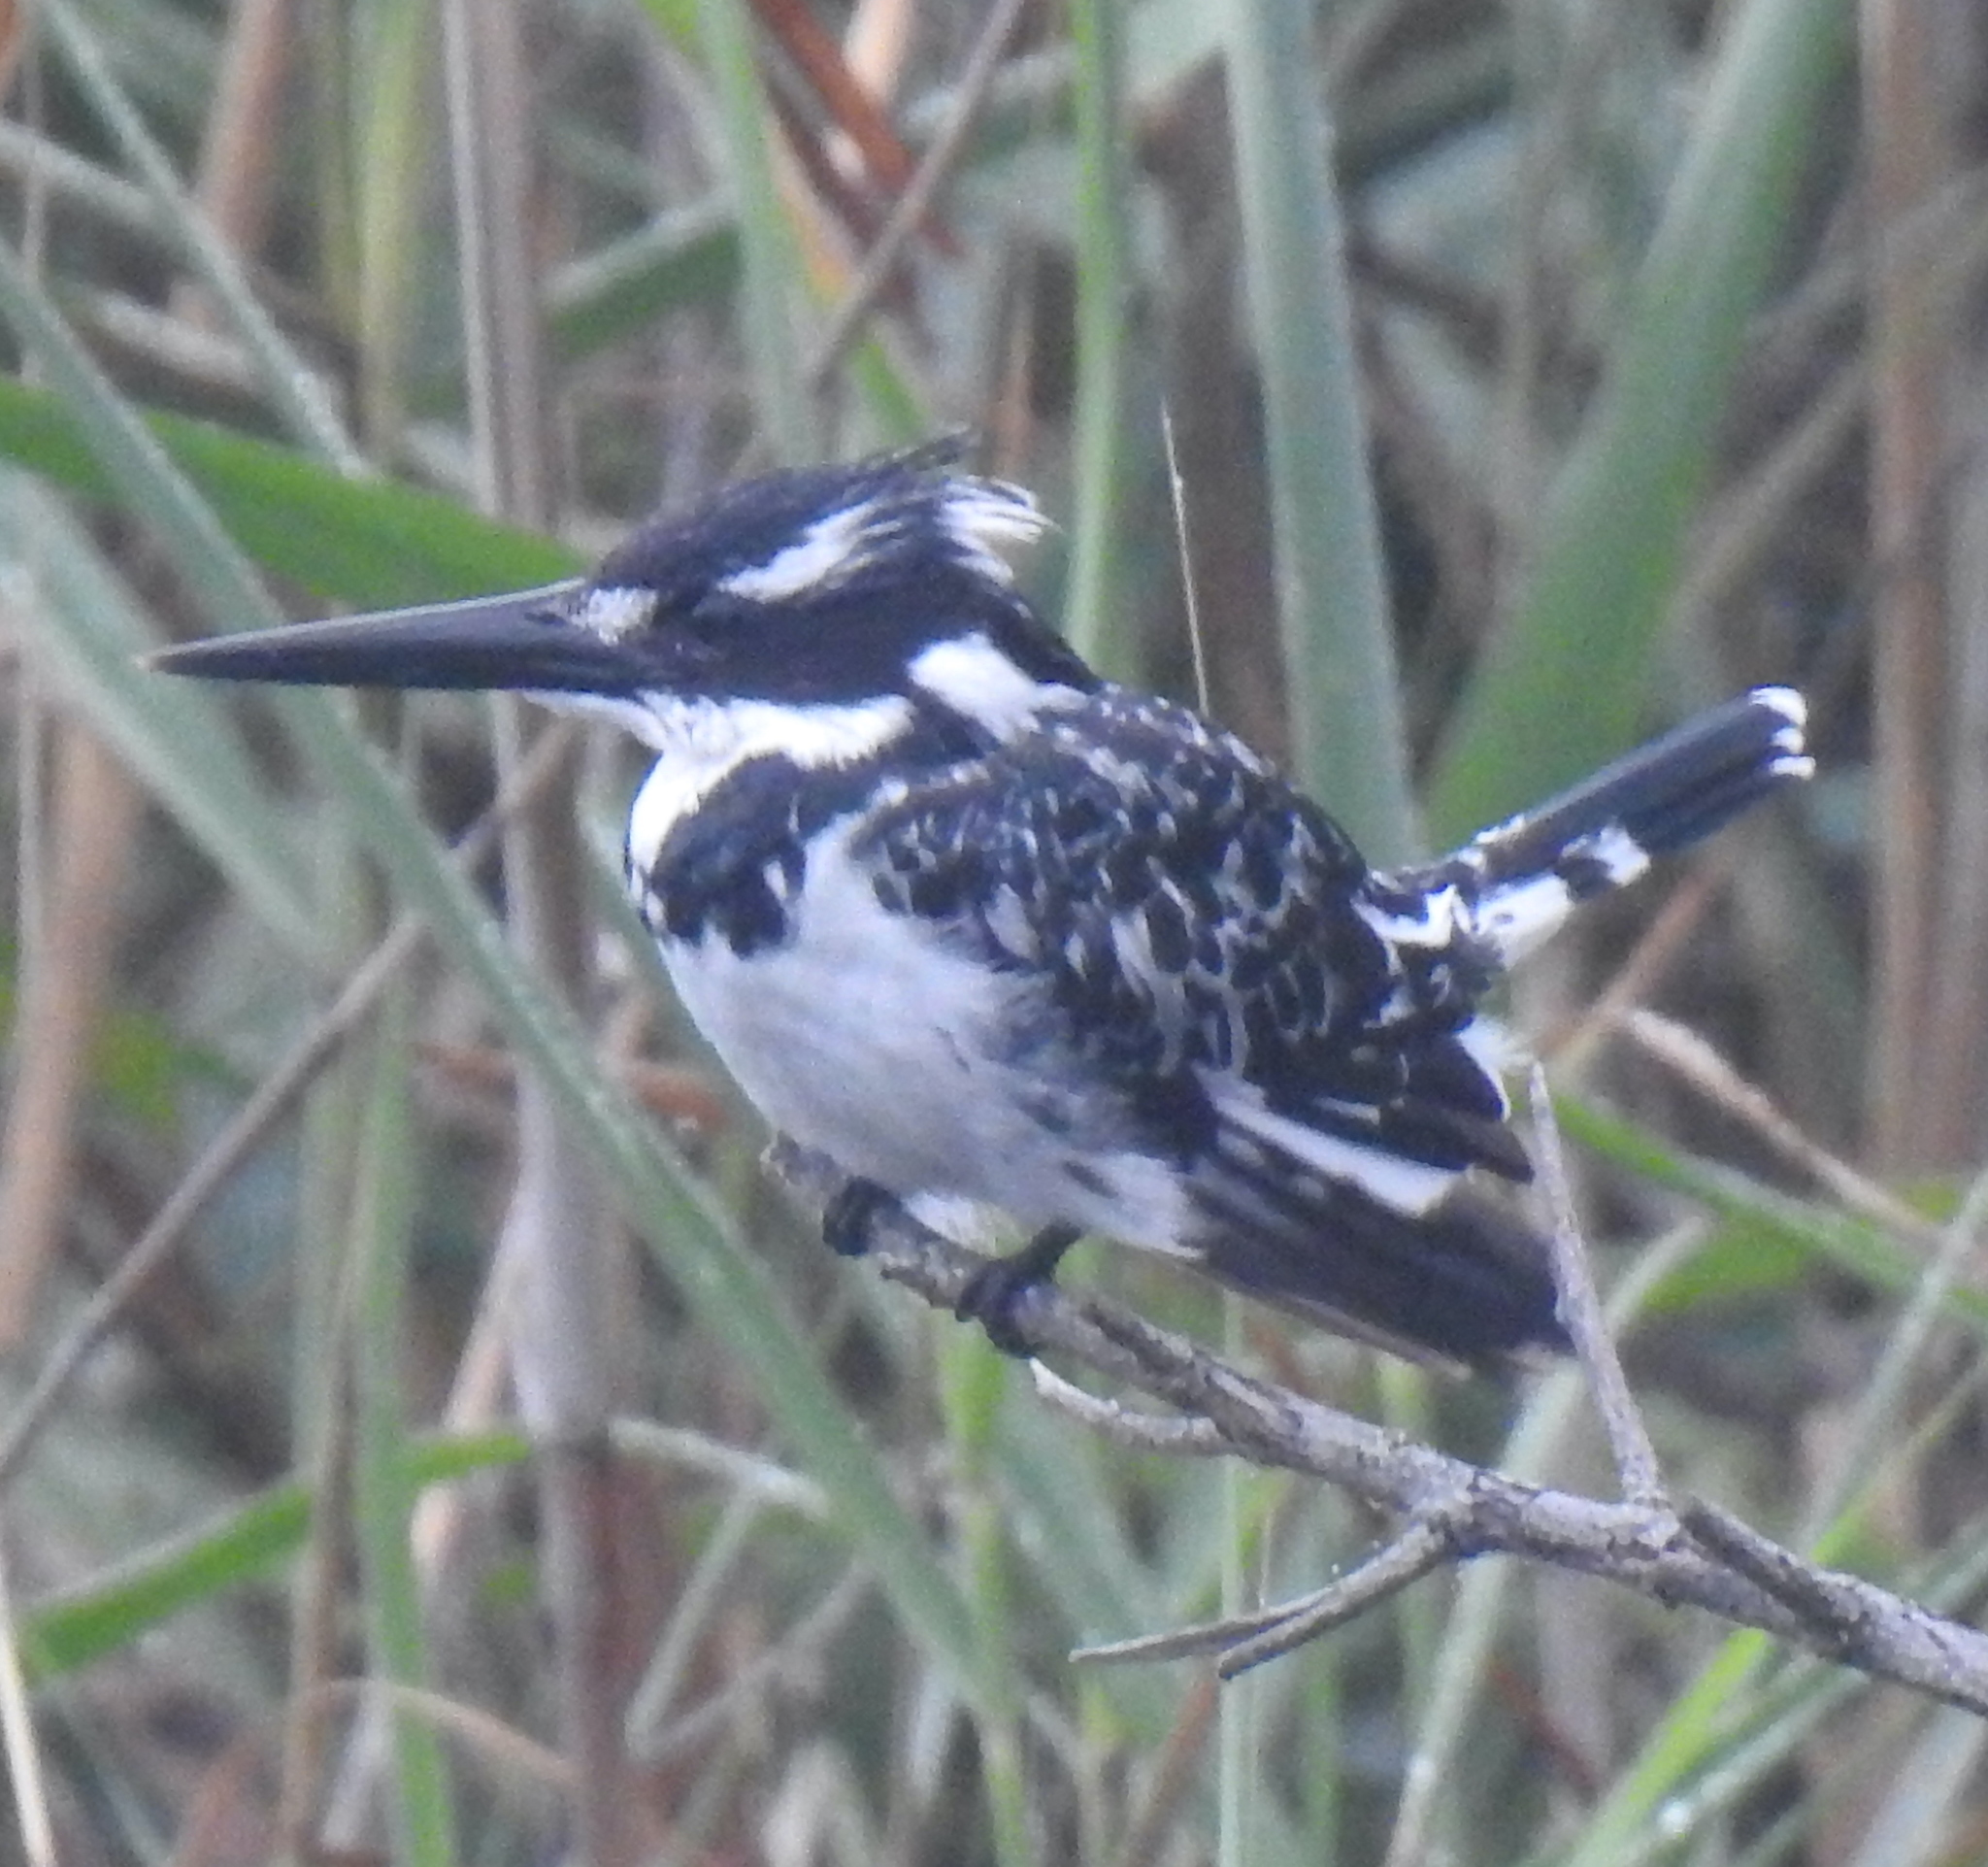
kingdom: Animalia
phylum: Chordata
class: Aves
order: Coraciiformes
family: Alcedinidae
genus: Ceryle
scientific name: Ceryle rudis
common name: Pied kingfisher
